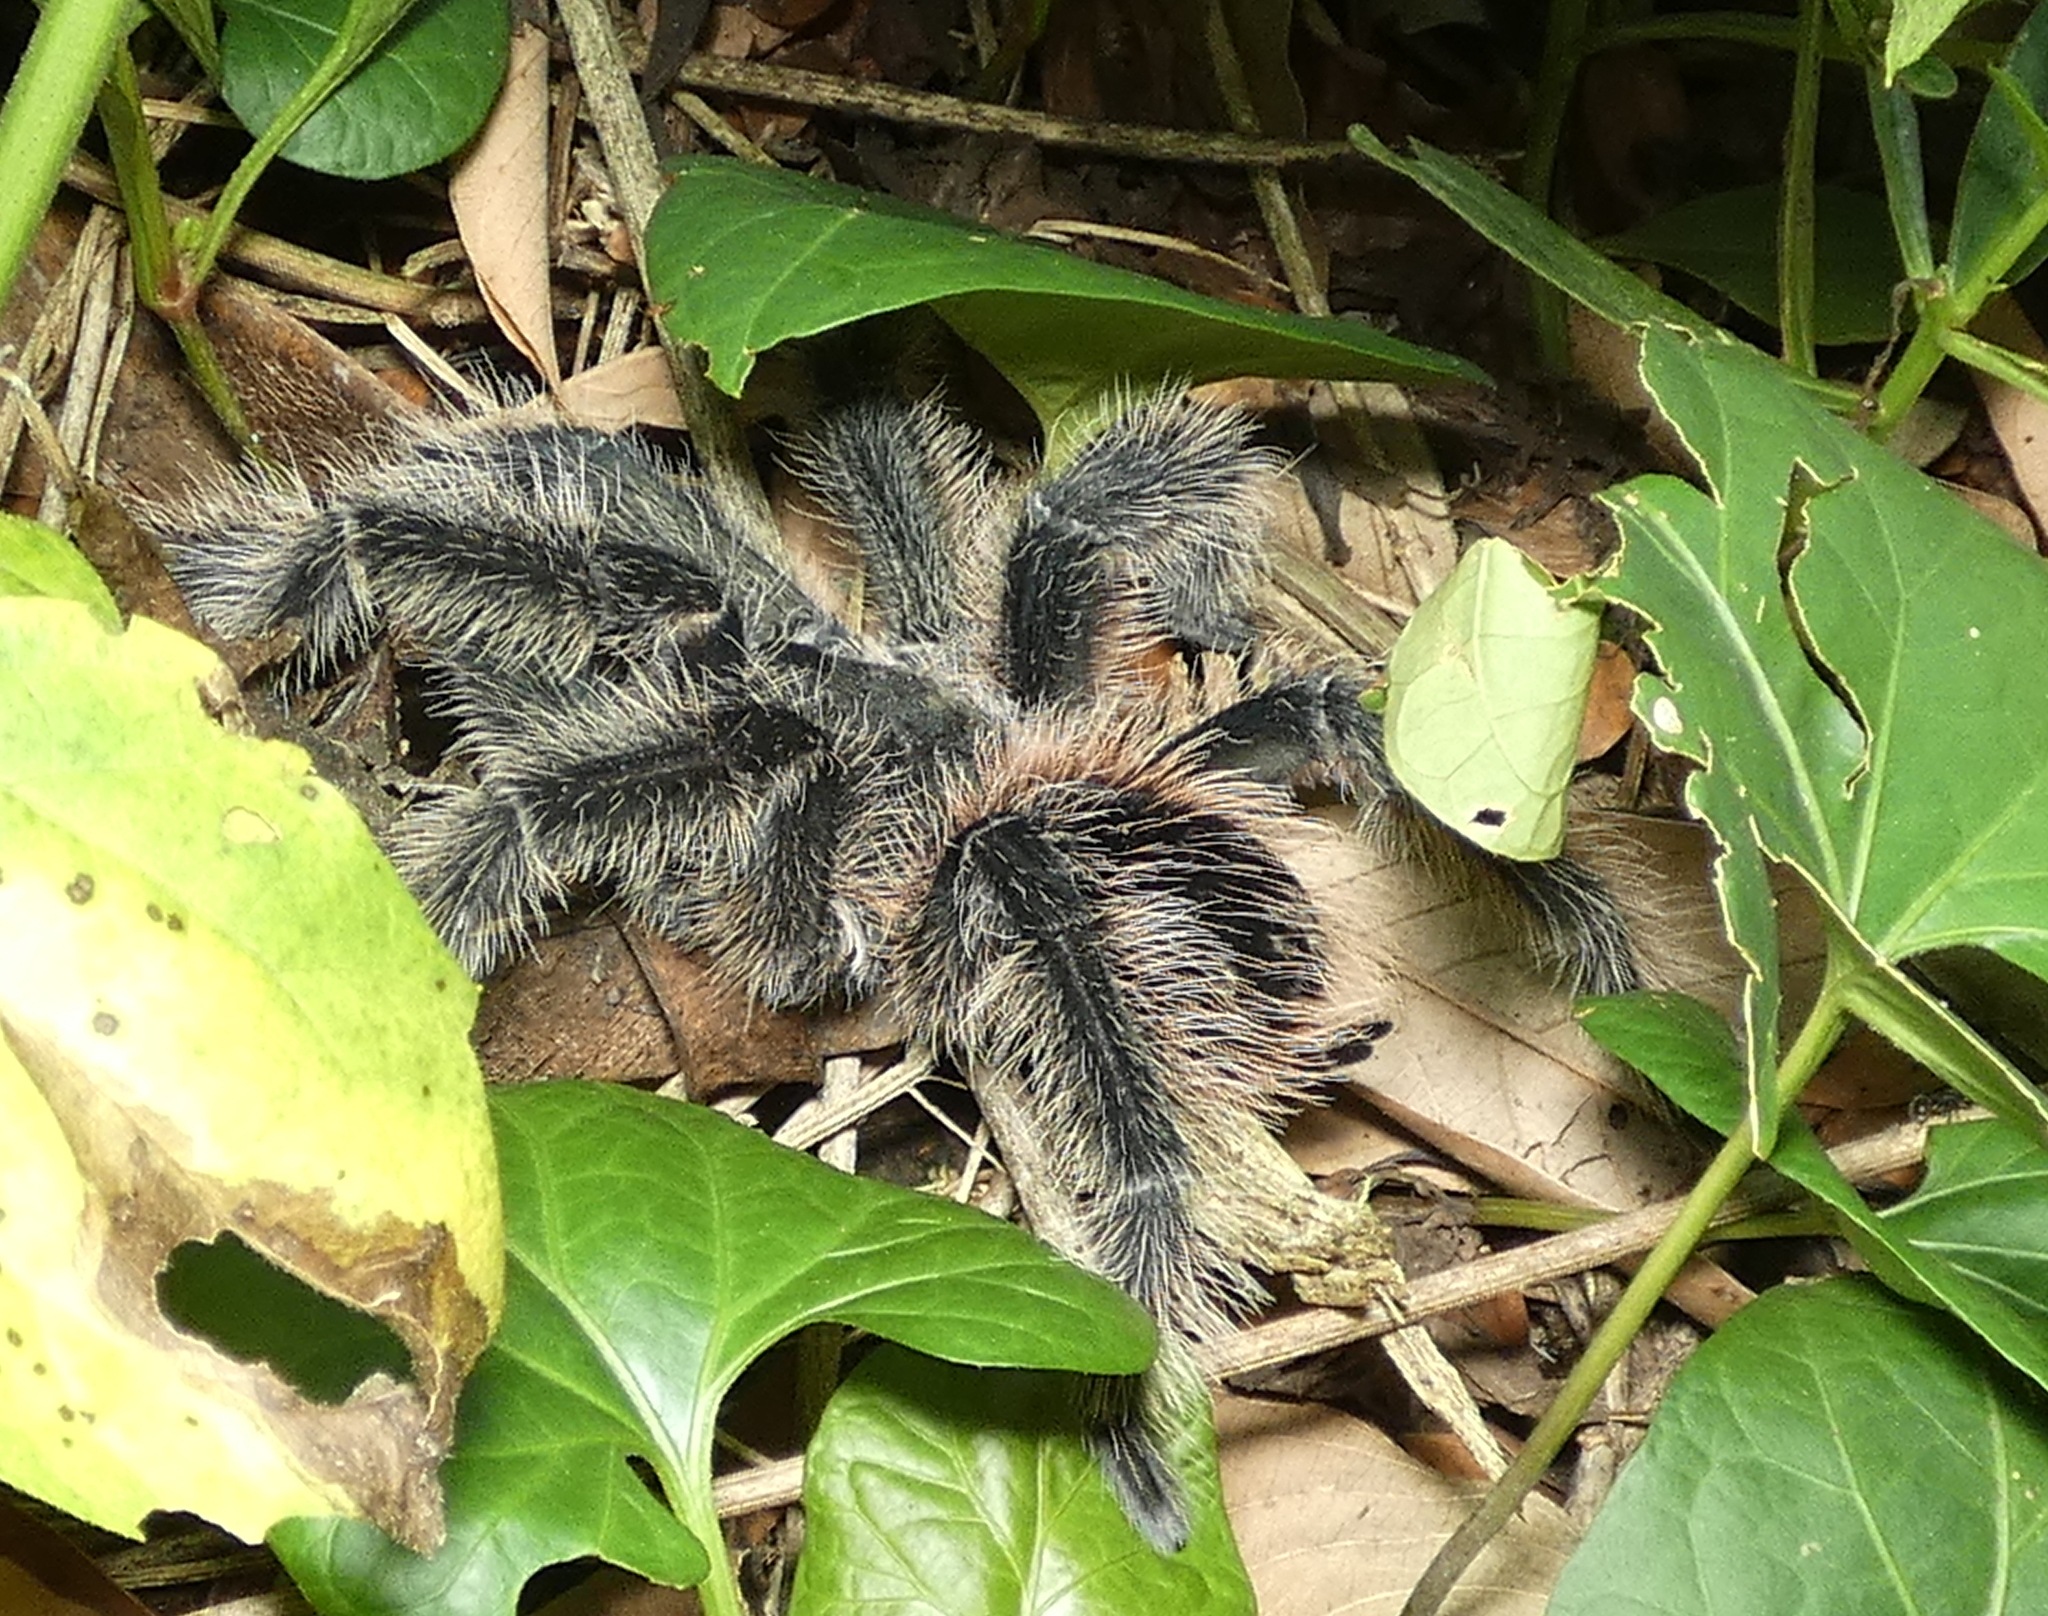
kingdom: Animalia
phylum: Arthropoda
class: Arachnida
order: Araneae
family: Theraphosidae
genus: Lasiodora
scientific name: Lasiodora parahybana
